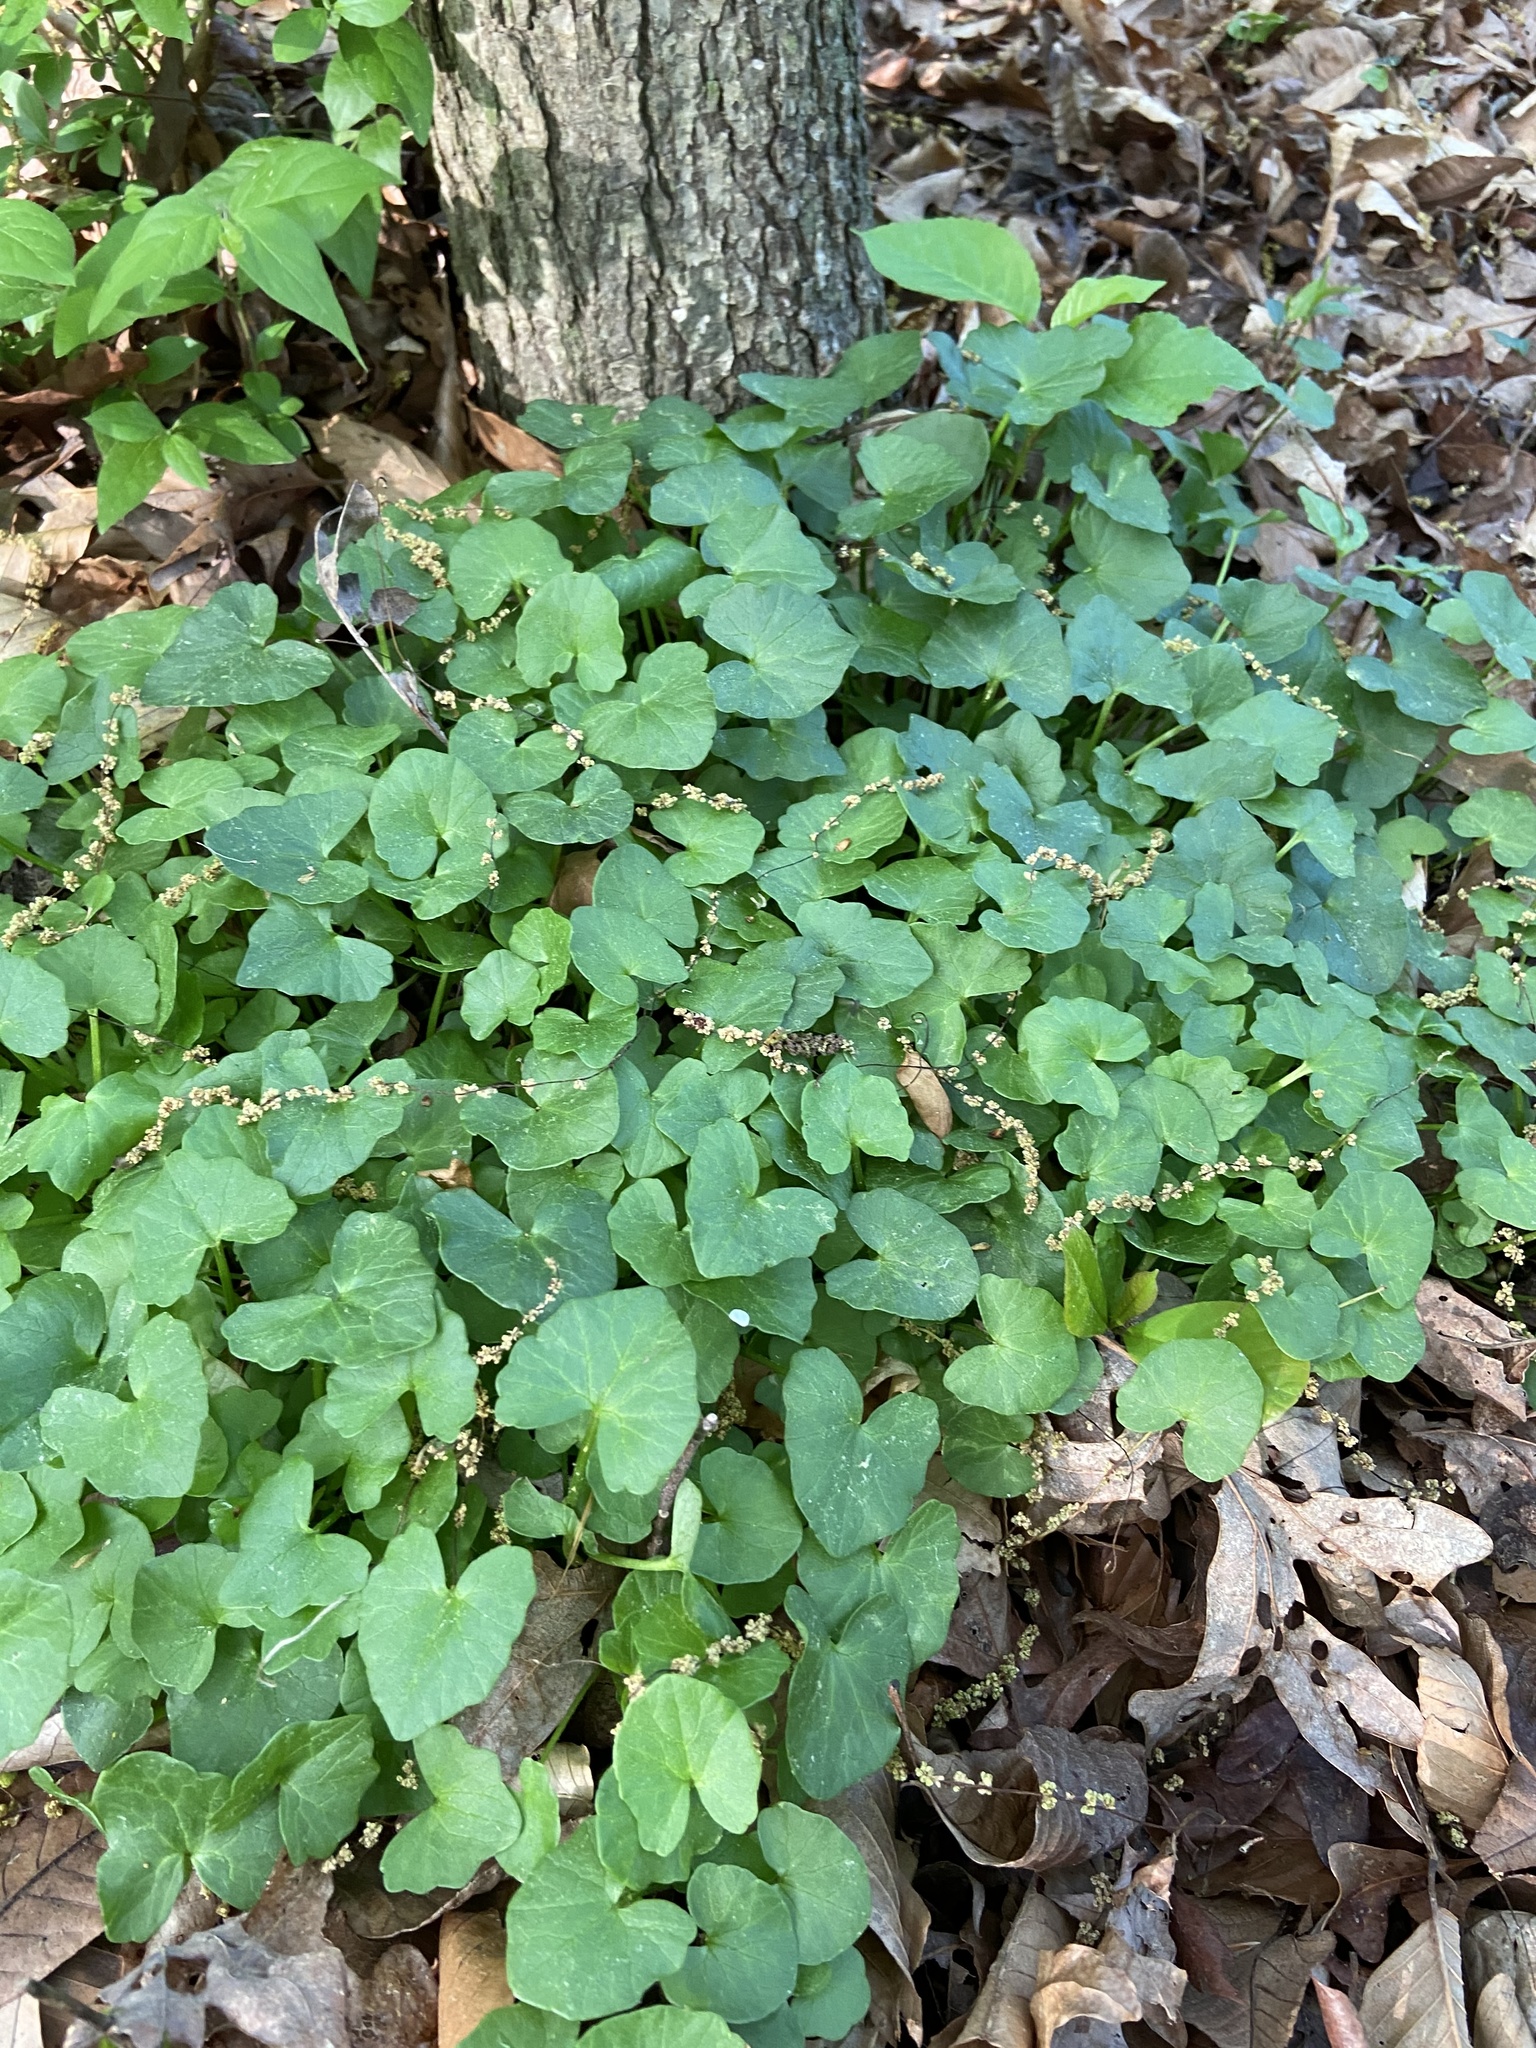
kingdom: Plantae
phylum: Tracheophyta
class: Magnoliopsida
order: Ranunculales
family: Ranunculaceae
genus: Ficaria
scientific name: Ficaria verna
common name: Lesser celandine
